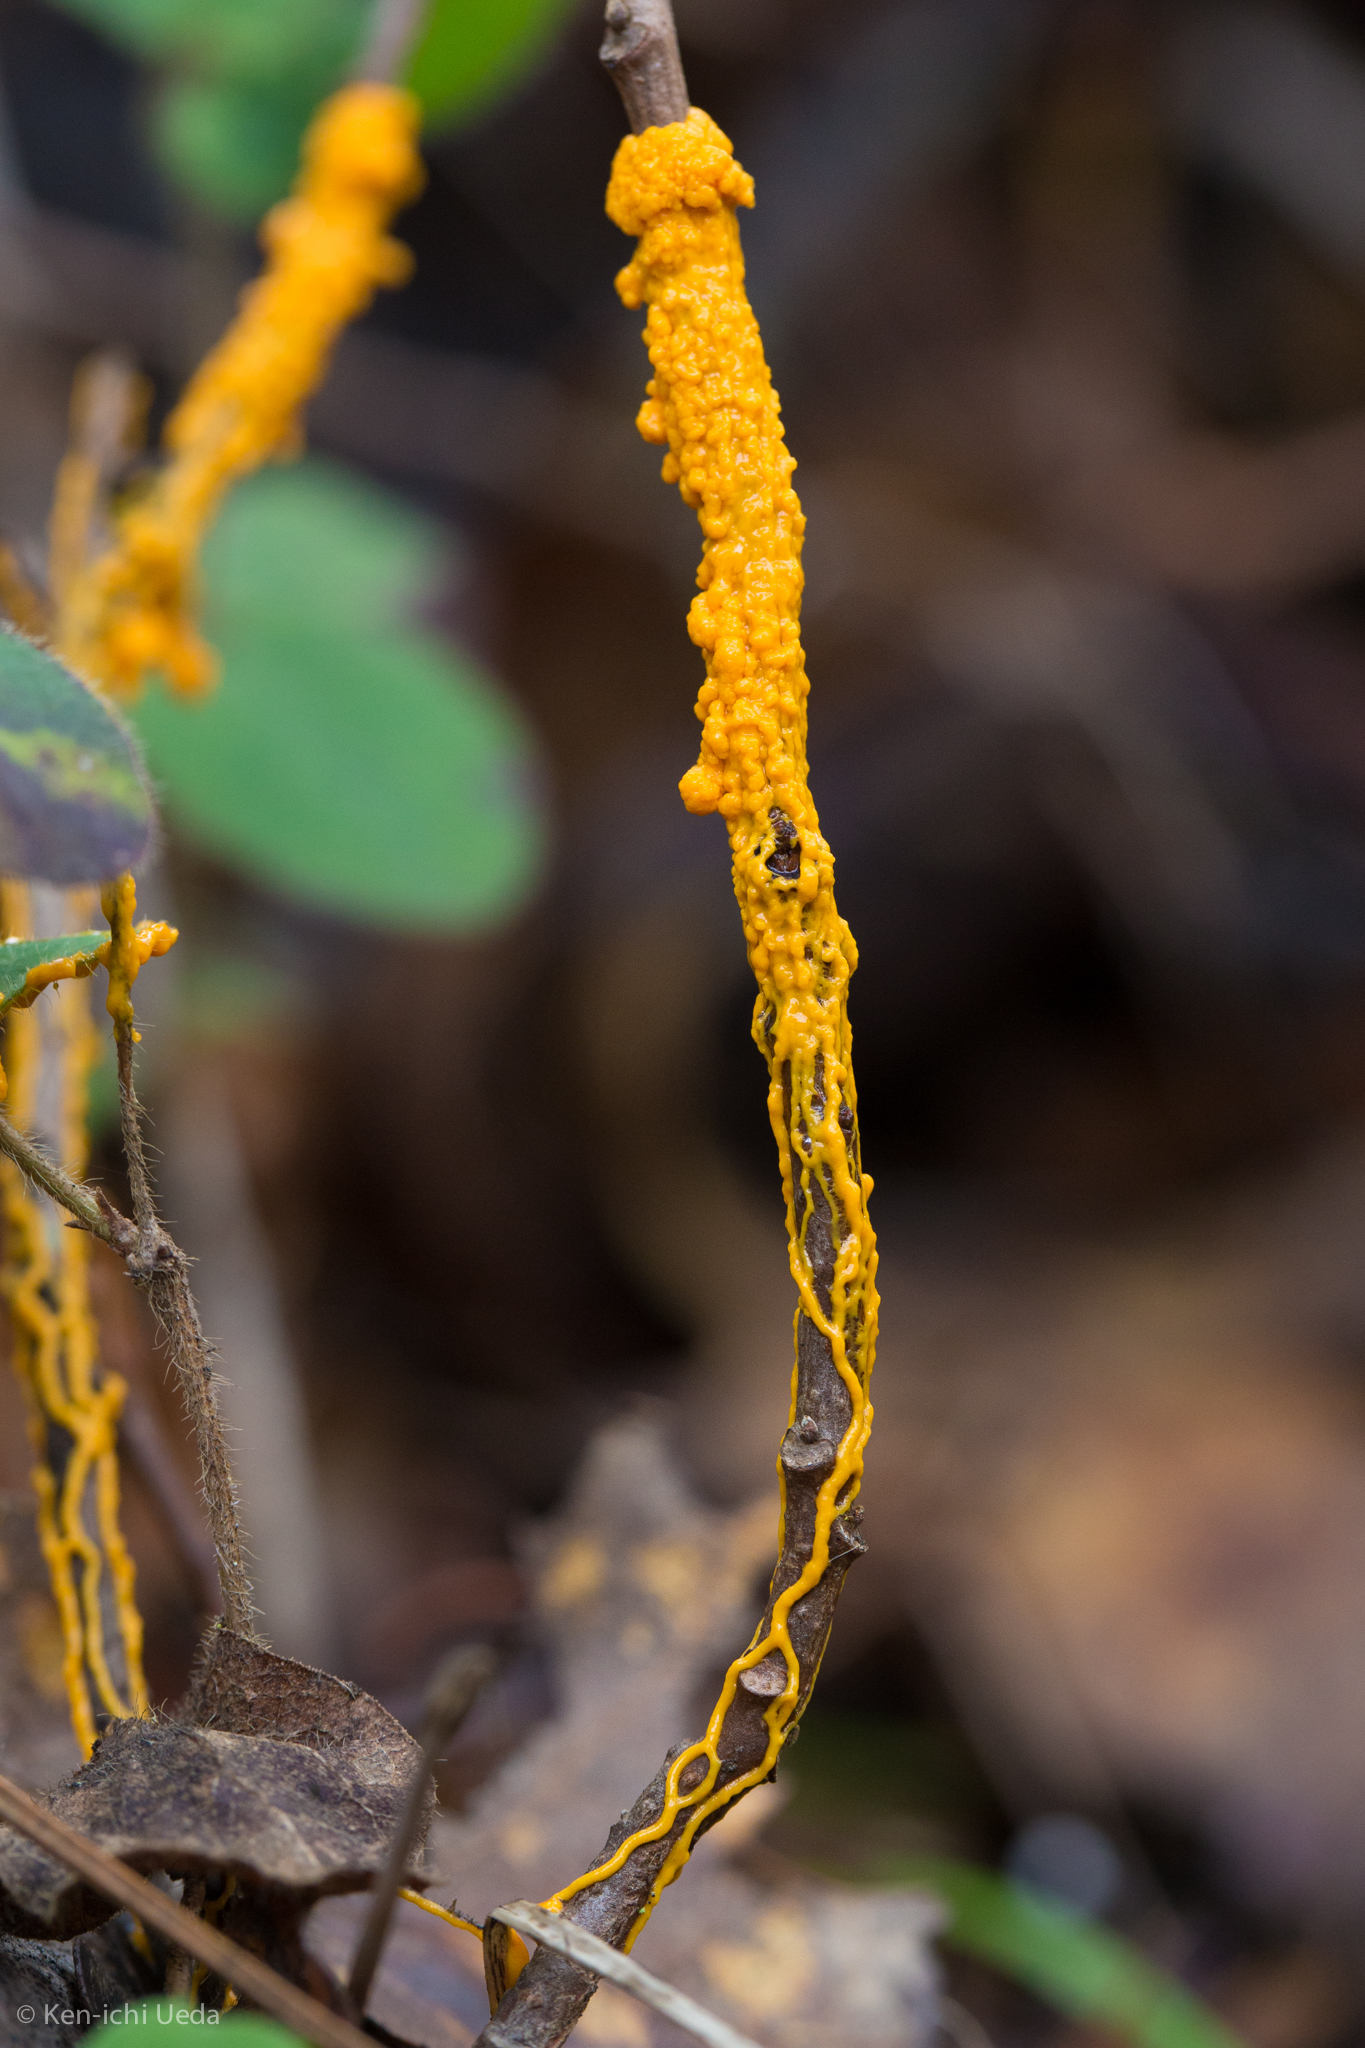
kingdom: Protozoa
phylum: Mycetozoa
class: Myxomycetes
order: Physarales
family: Physaraceae
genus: Leocarpus
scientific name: Leocarpus fragilis
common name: Insect-egg slime
